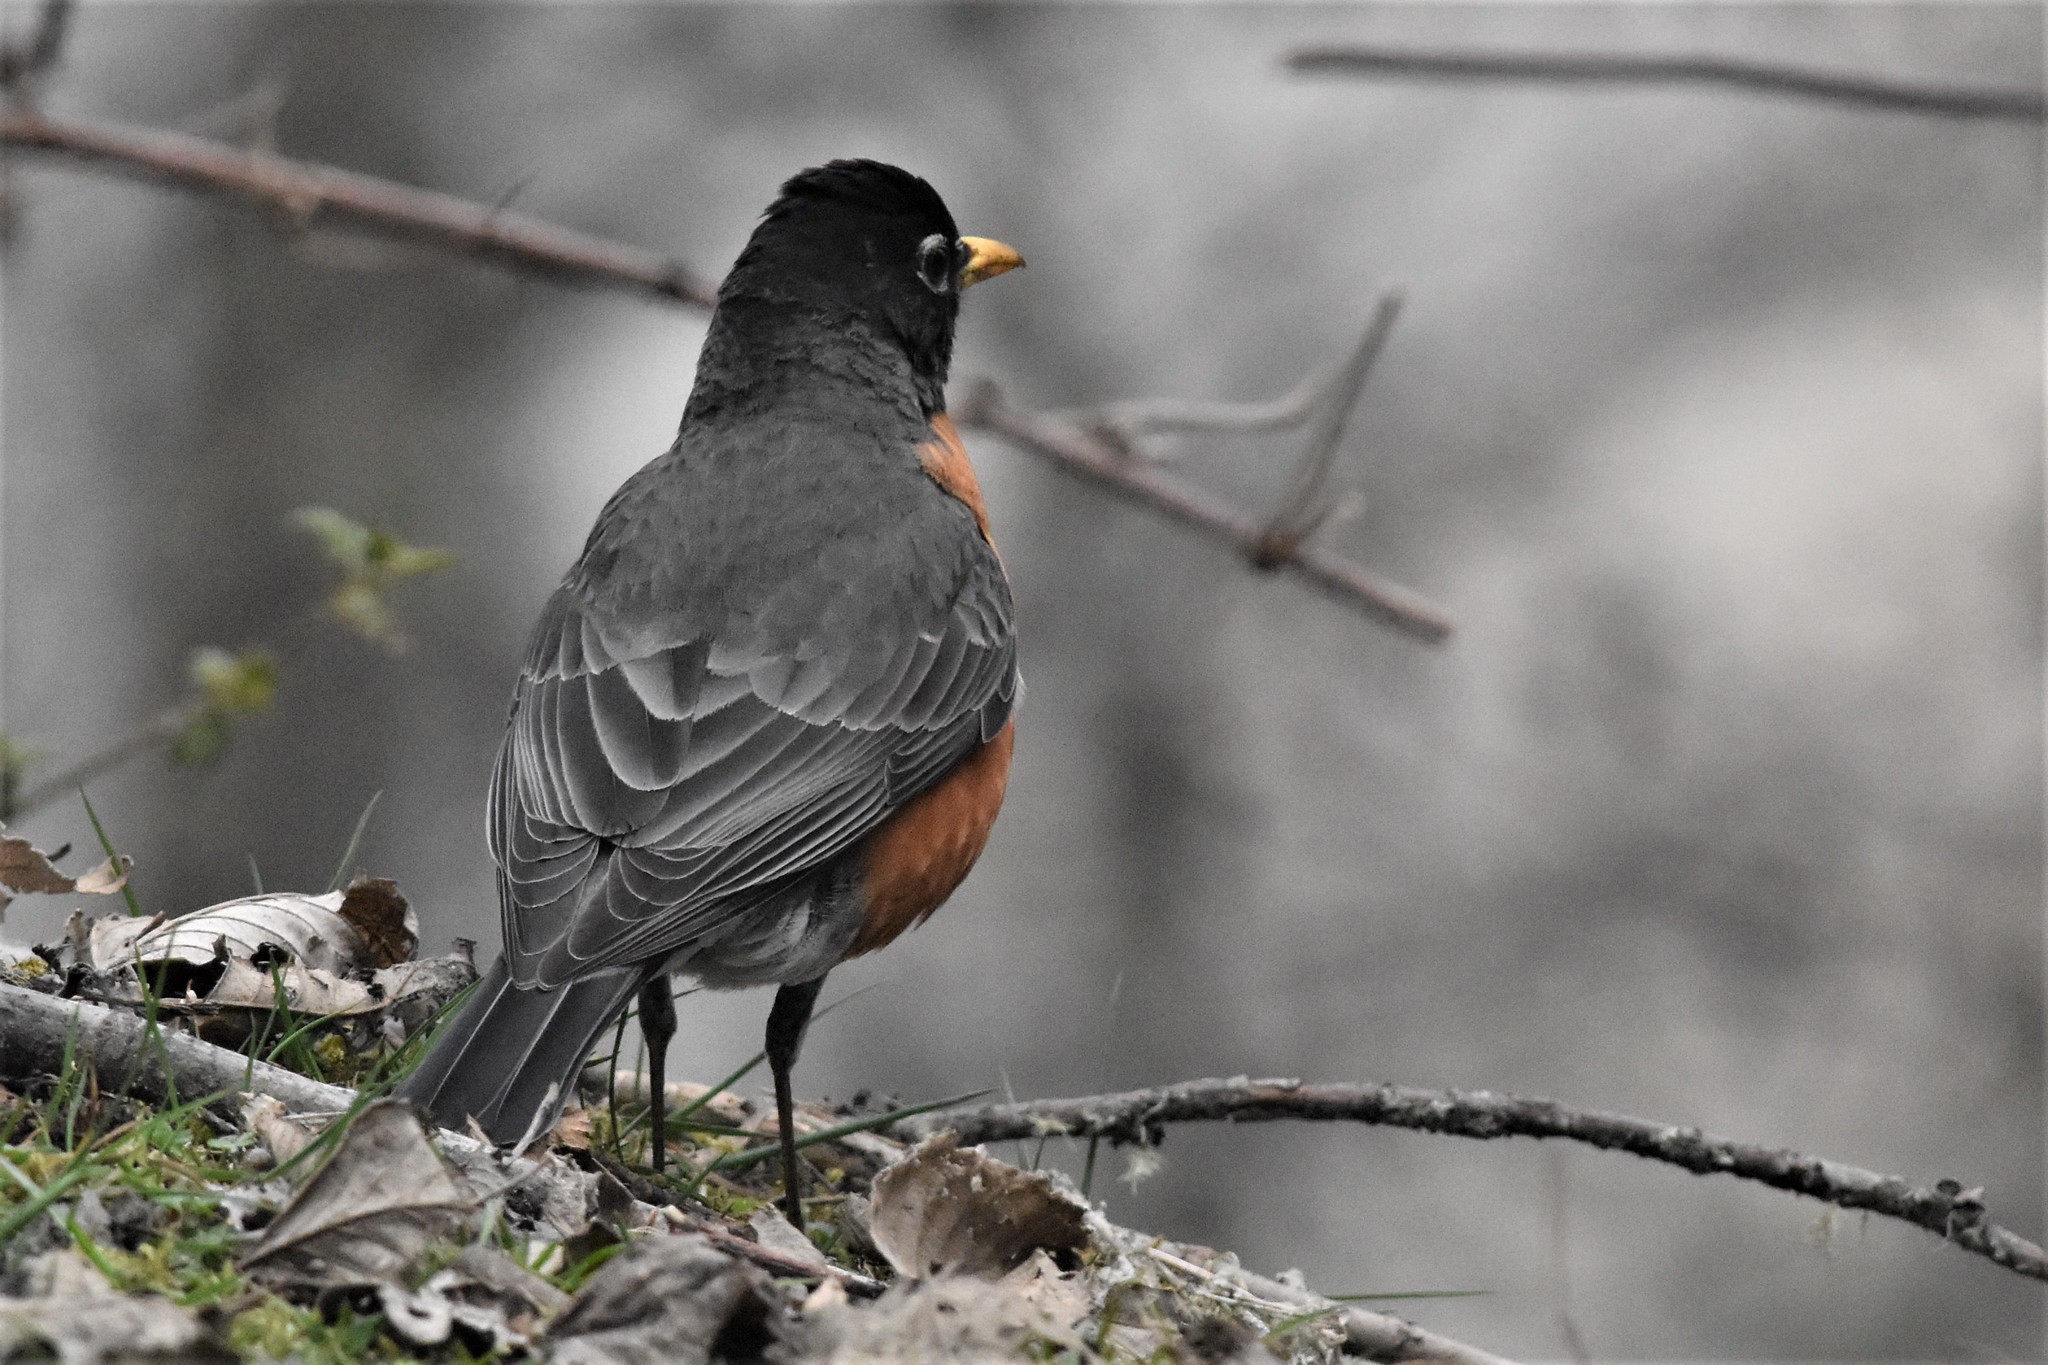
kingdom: Animalia
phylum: Chordata
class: Aves
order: Passeriformes
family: Turdidae
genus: Turdus
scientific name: Turdus migratorius
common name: American robin
